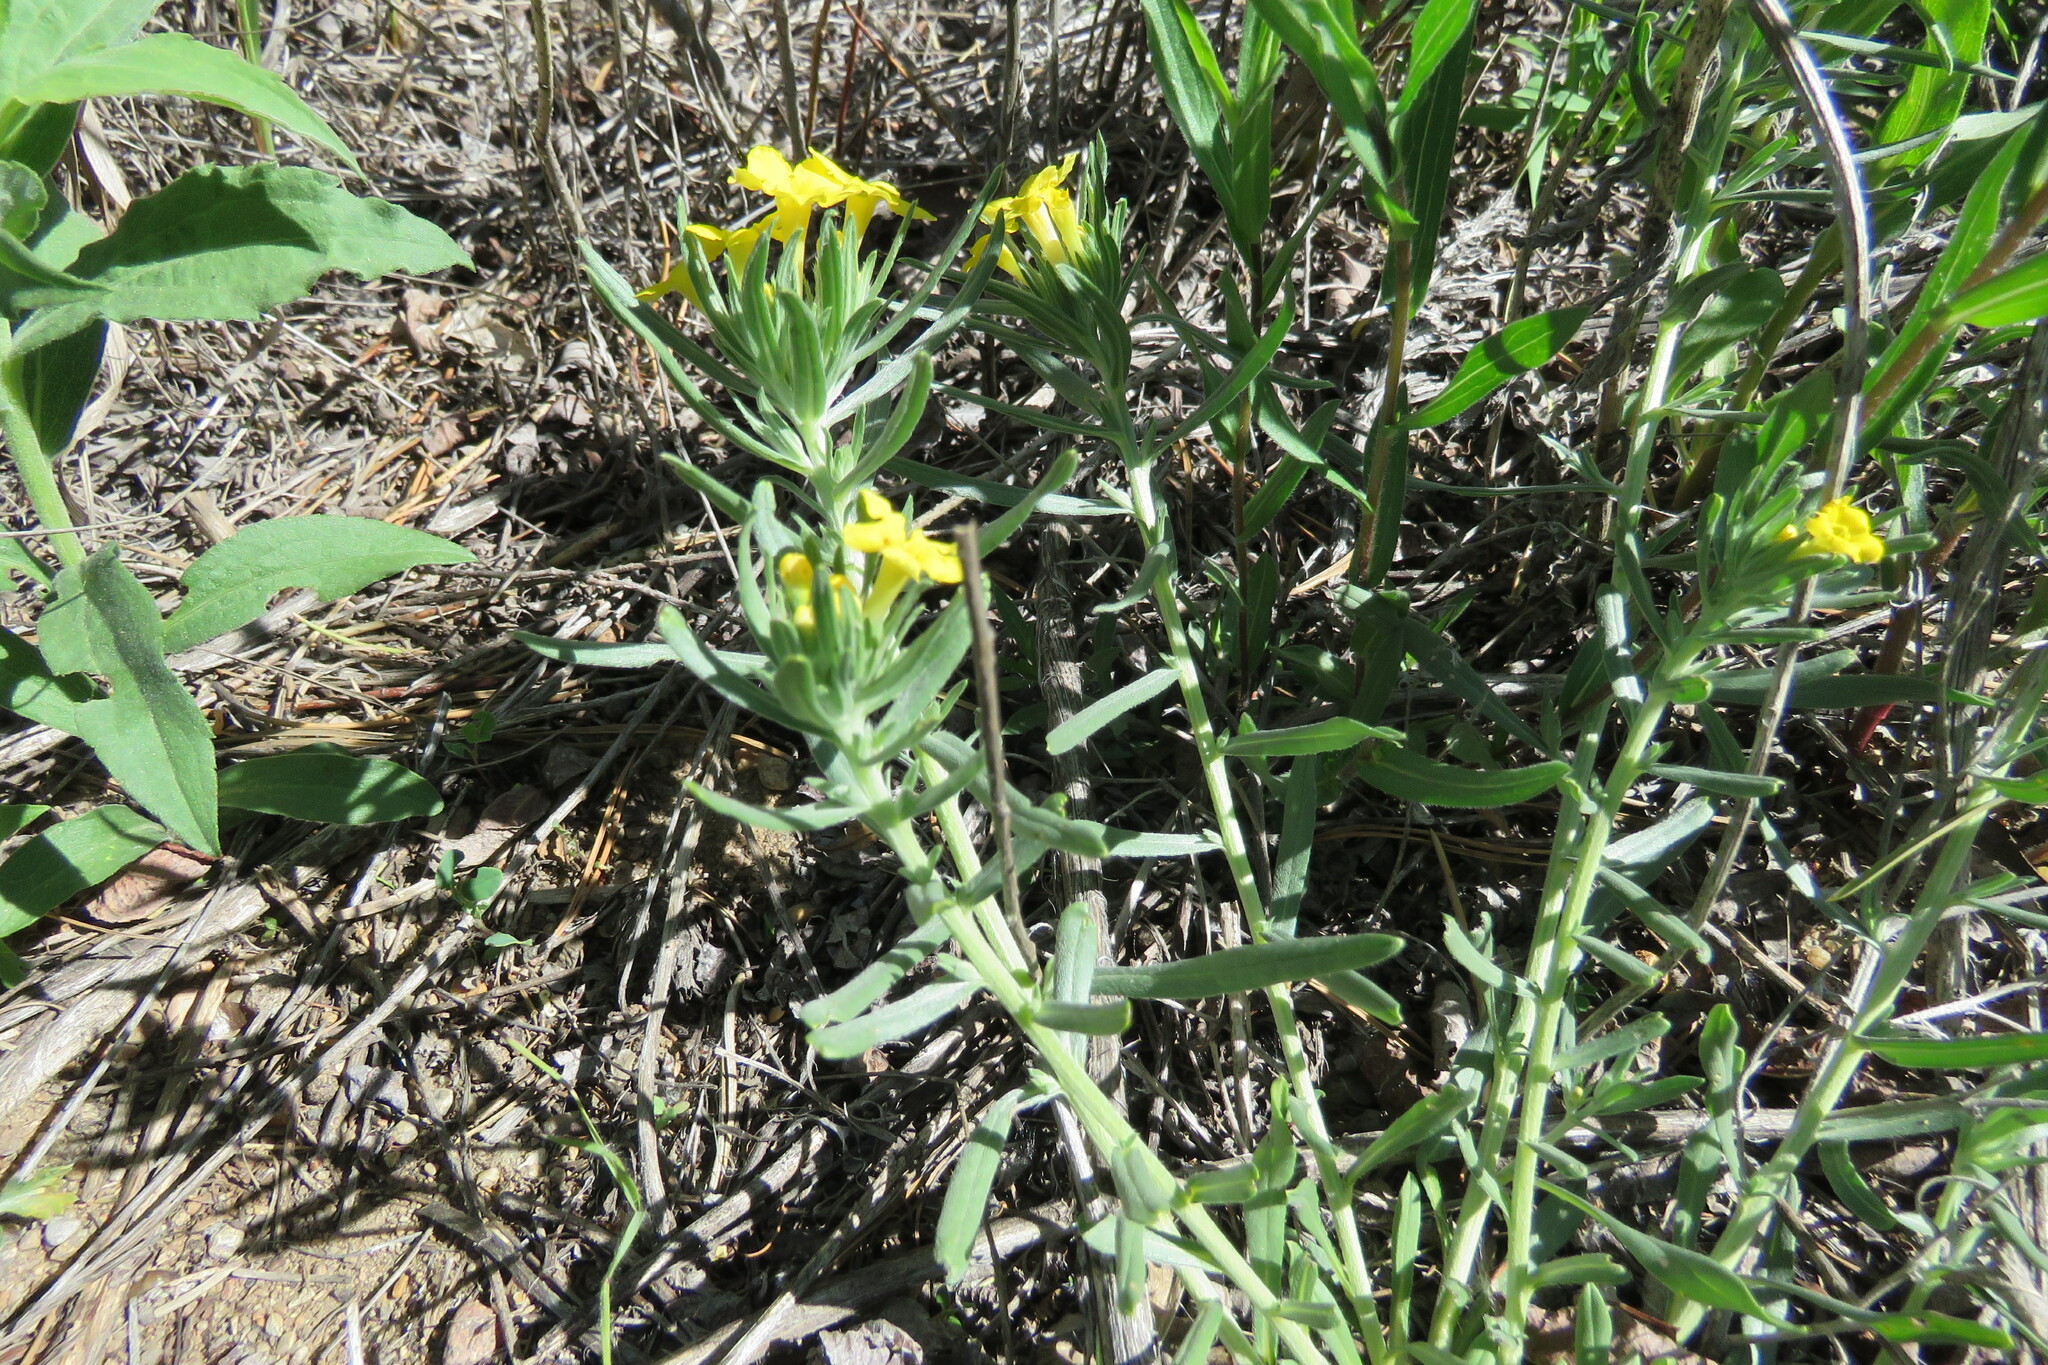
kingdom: Plantae
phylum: Tracheophyta
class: Magnoliopsida
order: Boraginales
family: Boraginaceae
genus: Lithospermum
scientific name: Lithospermum incisum
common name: Fringed gromwell
